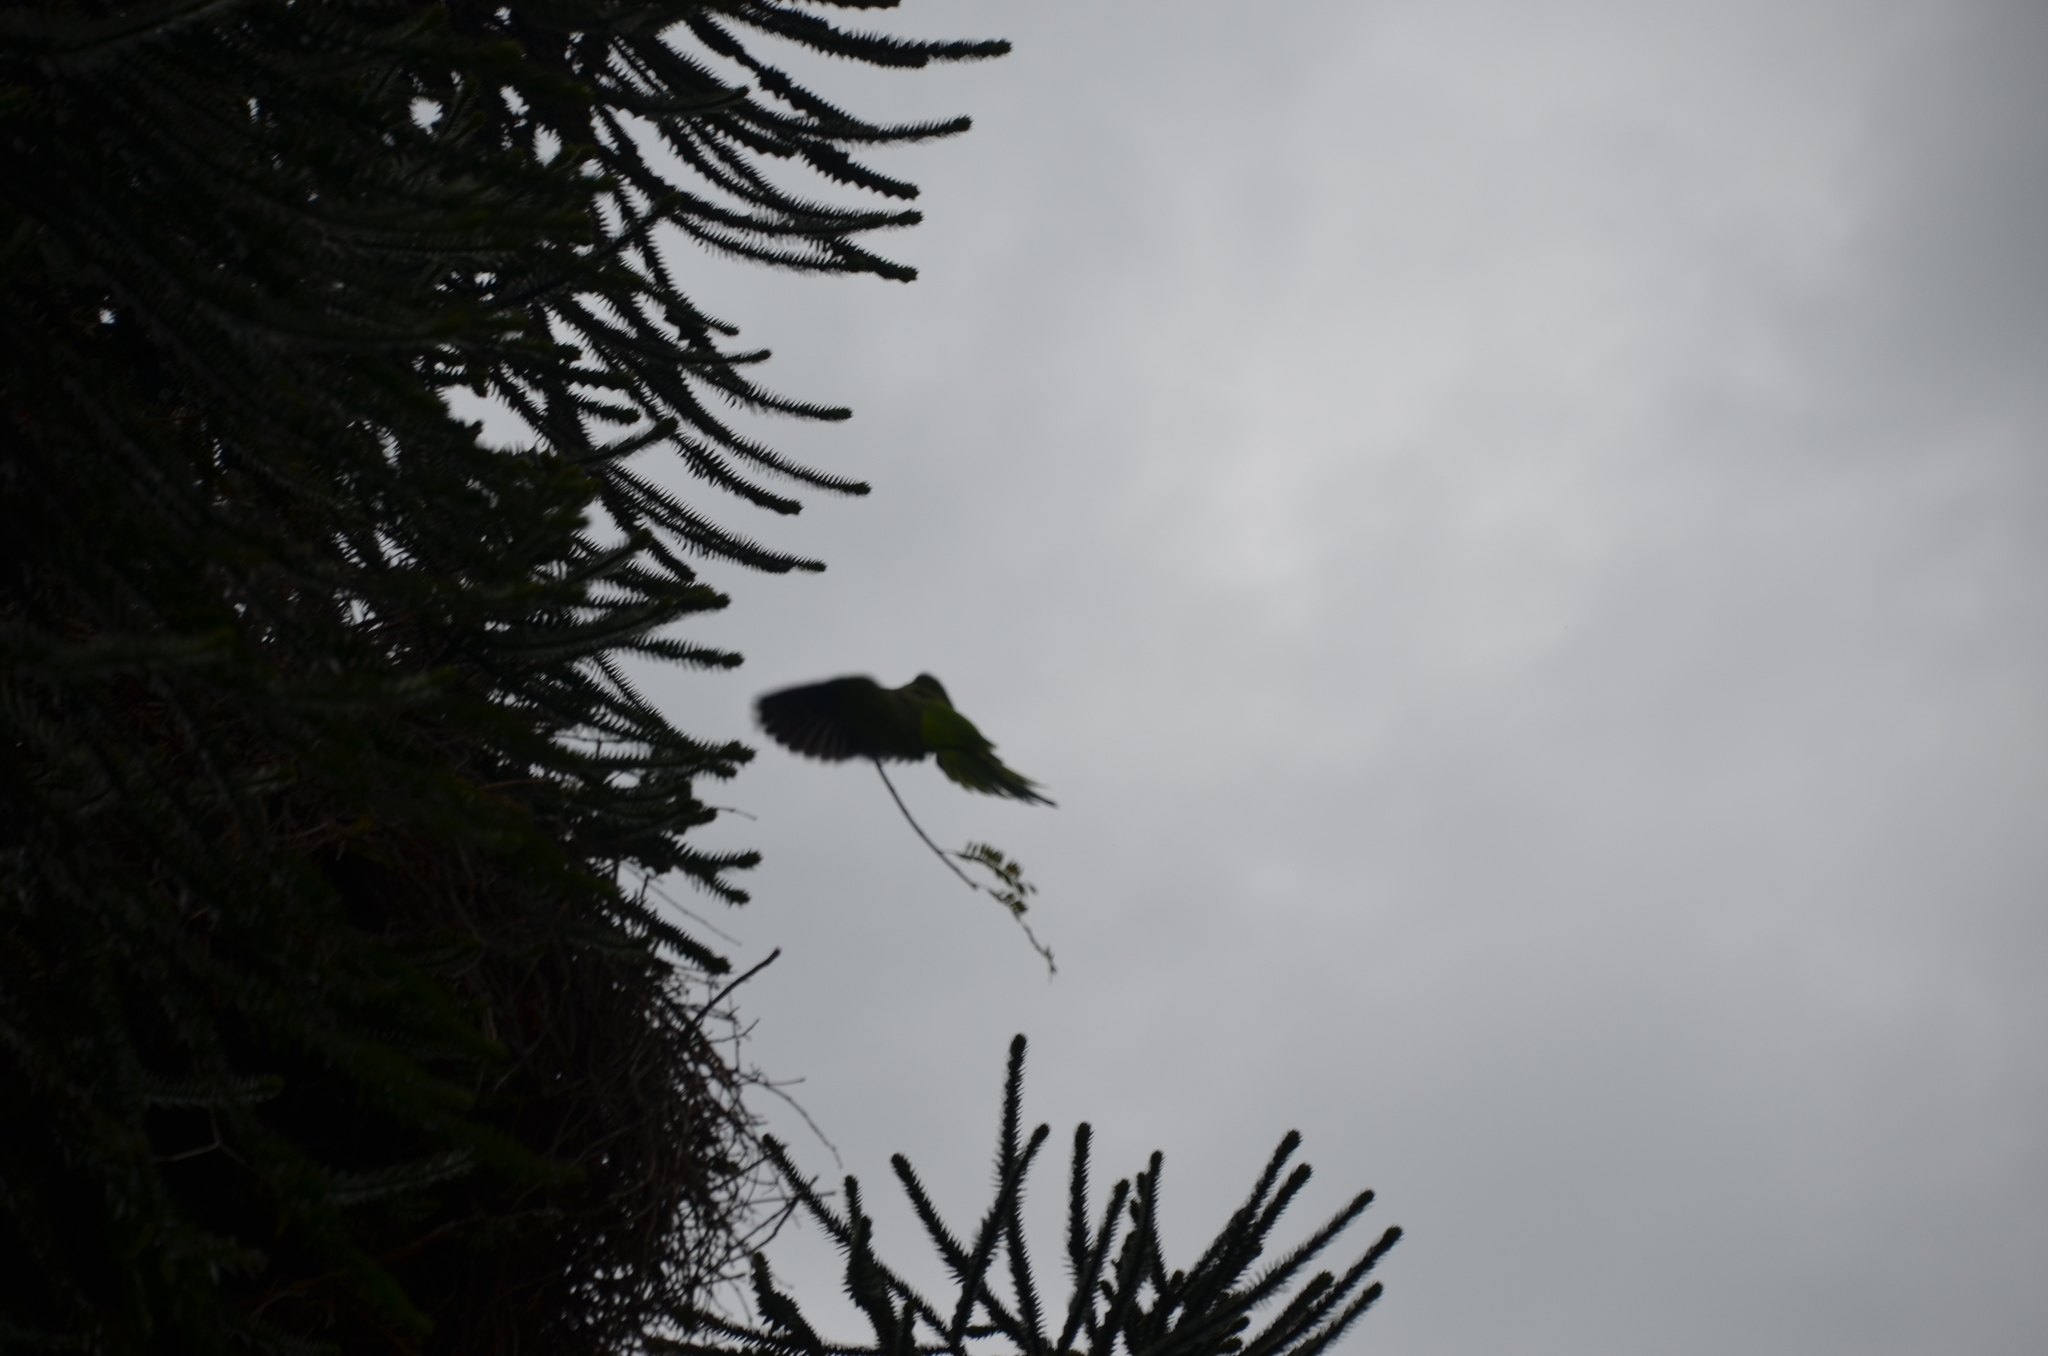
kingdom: Animalia
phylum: Chordata
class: Aves
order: Psittaciformes
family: Psittacidae
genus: Myiopsitta
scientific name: Myiopsitta monachus
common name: Monk parakeet
